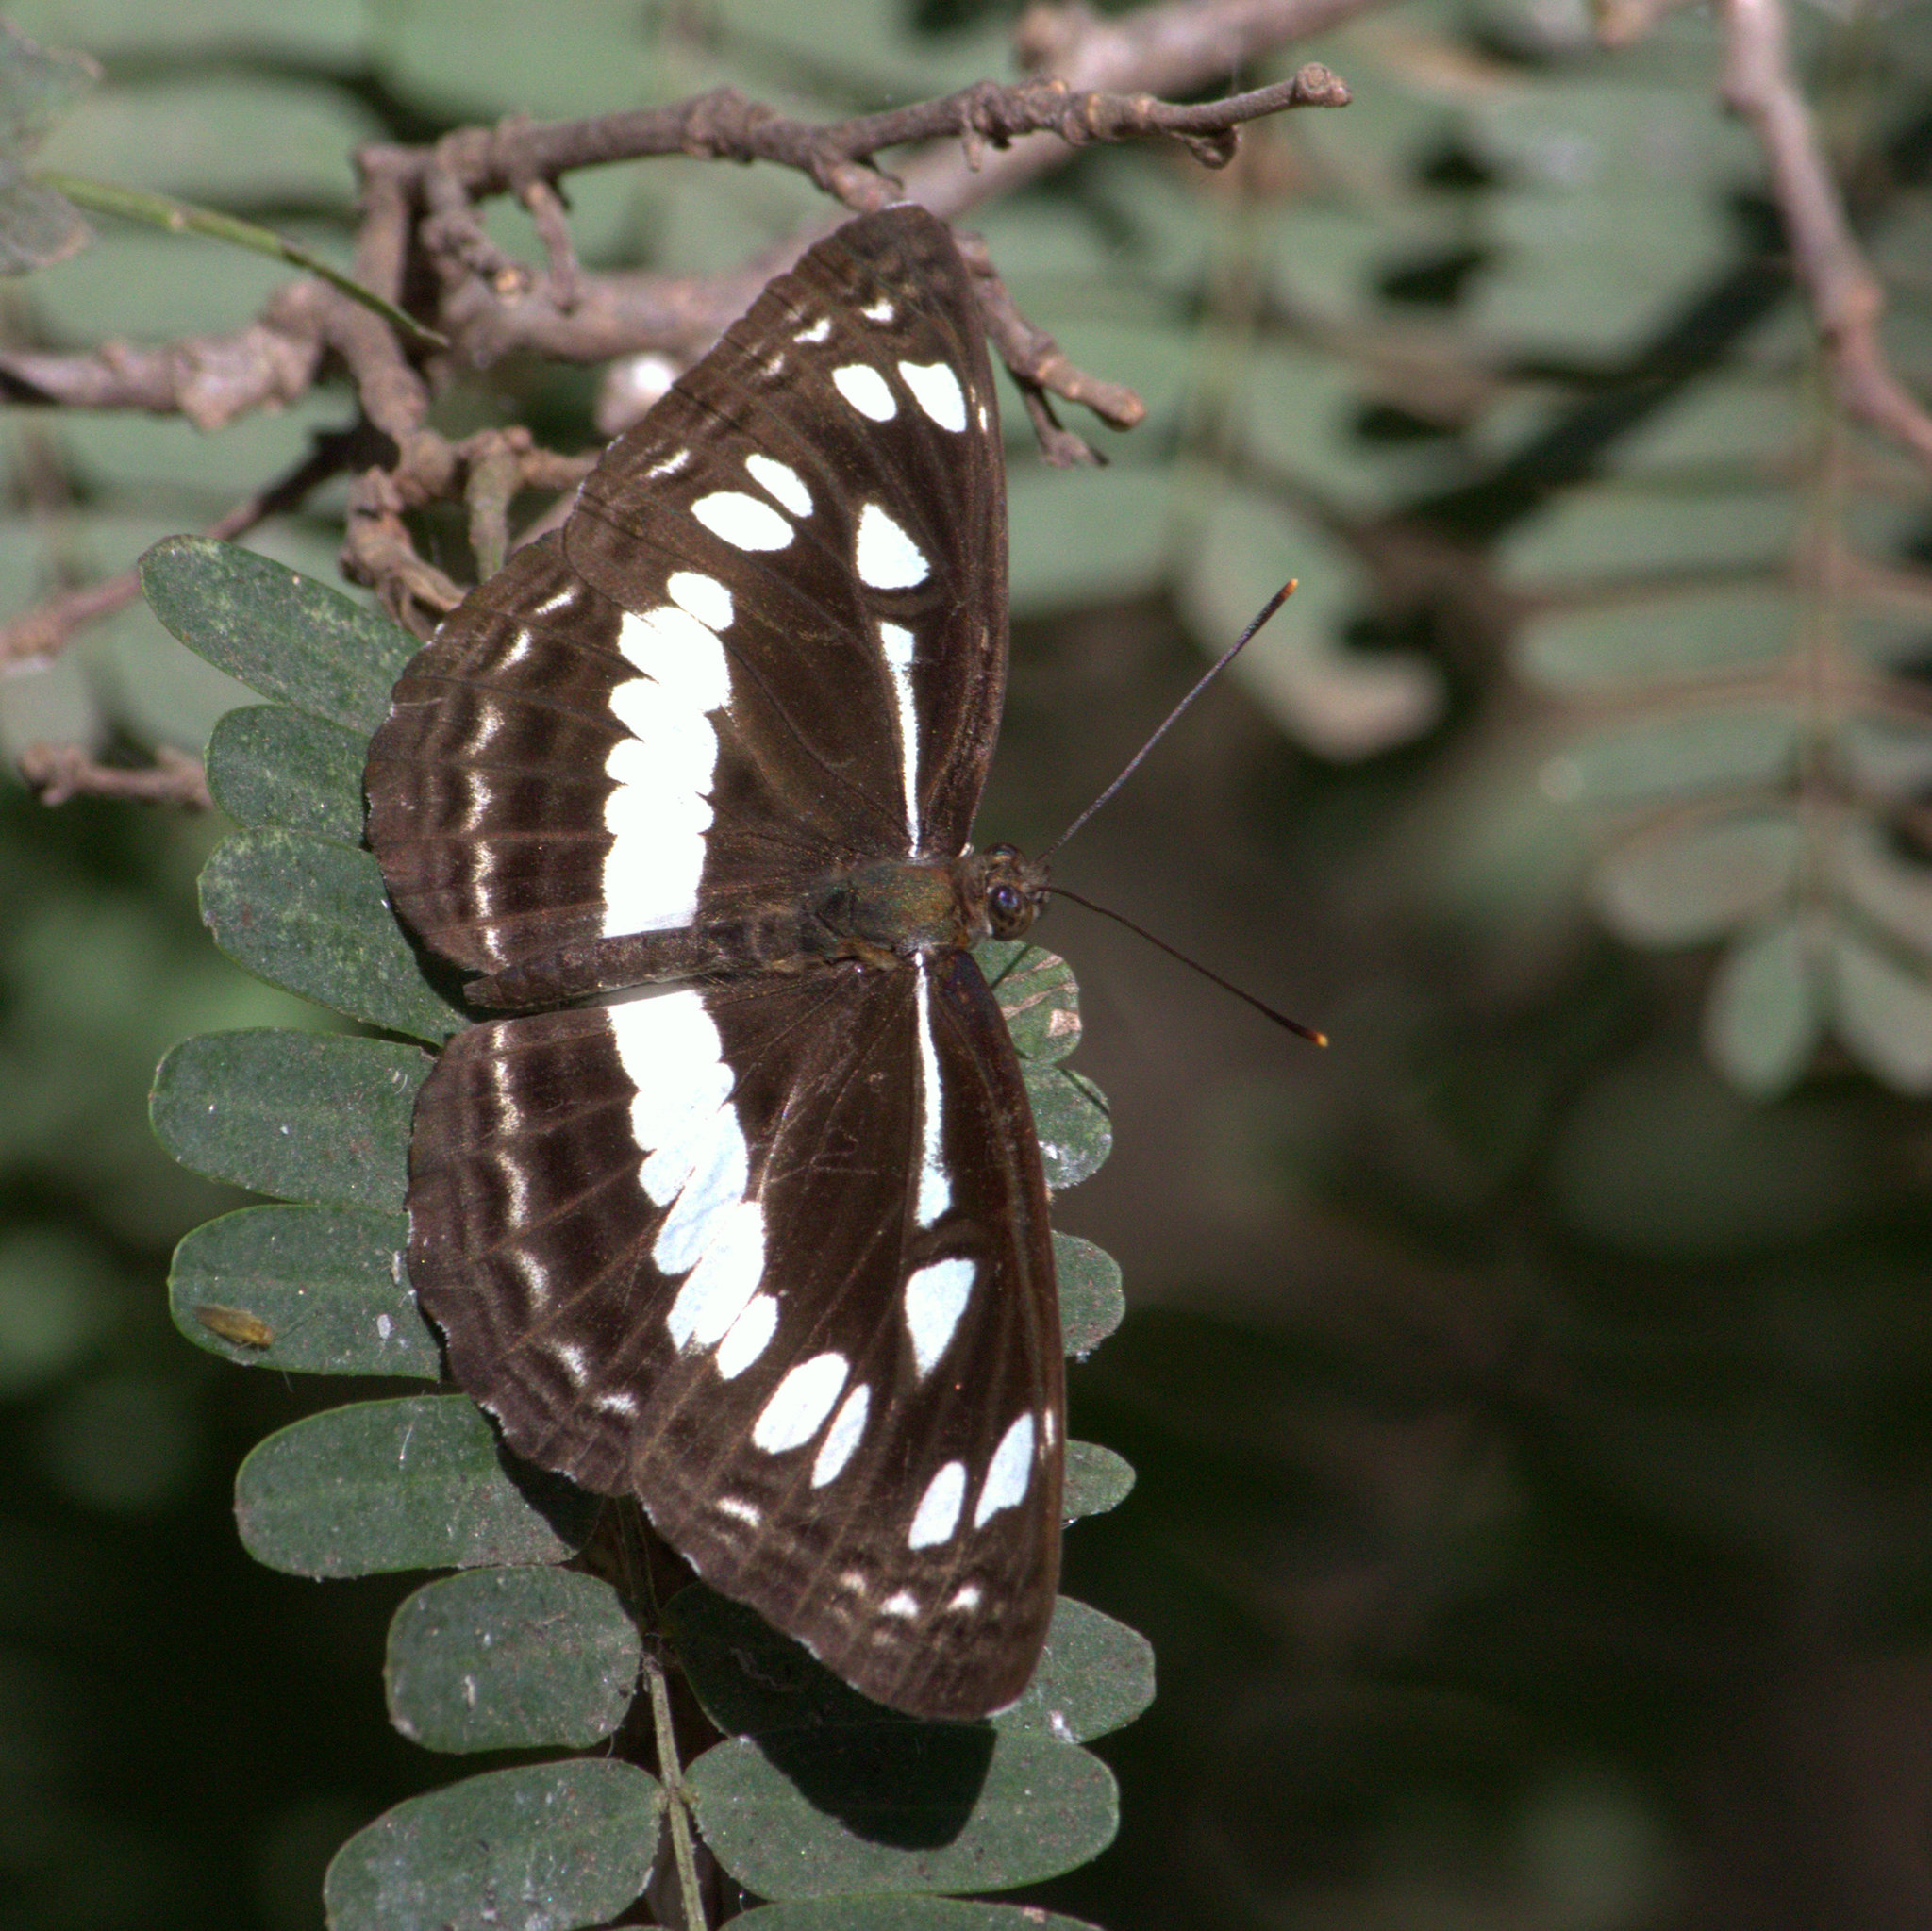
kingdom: Animalia
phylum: Arthropoda
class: Insecta
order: Lepidoptera
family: Nymphalidae
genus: Neptis
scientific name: Neptis jumbah
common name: Chestnut-streaked sailer
